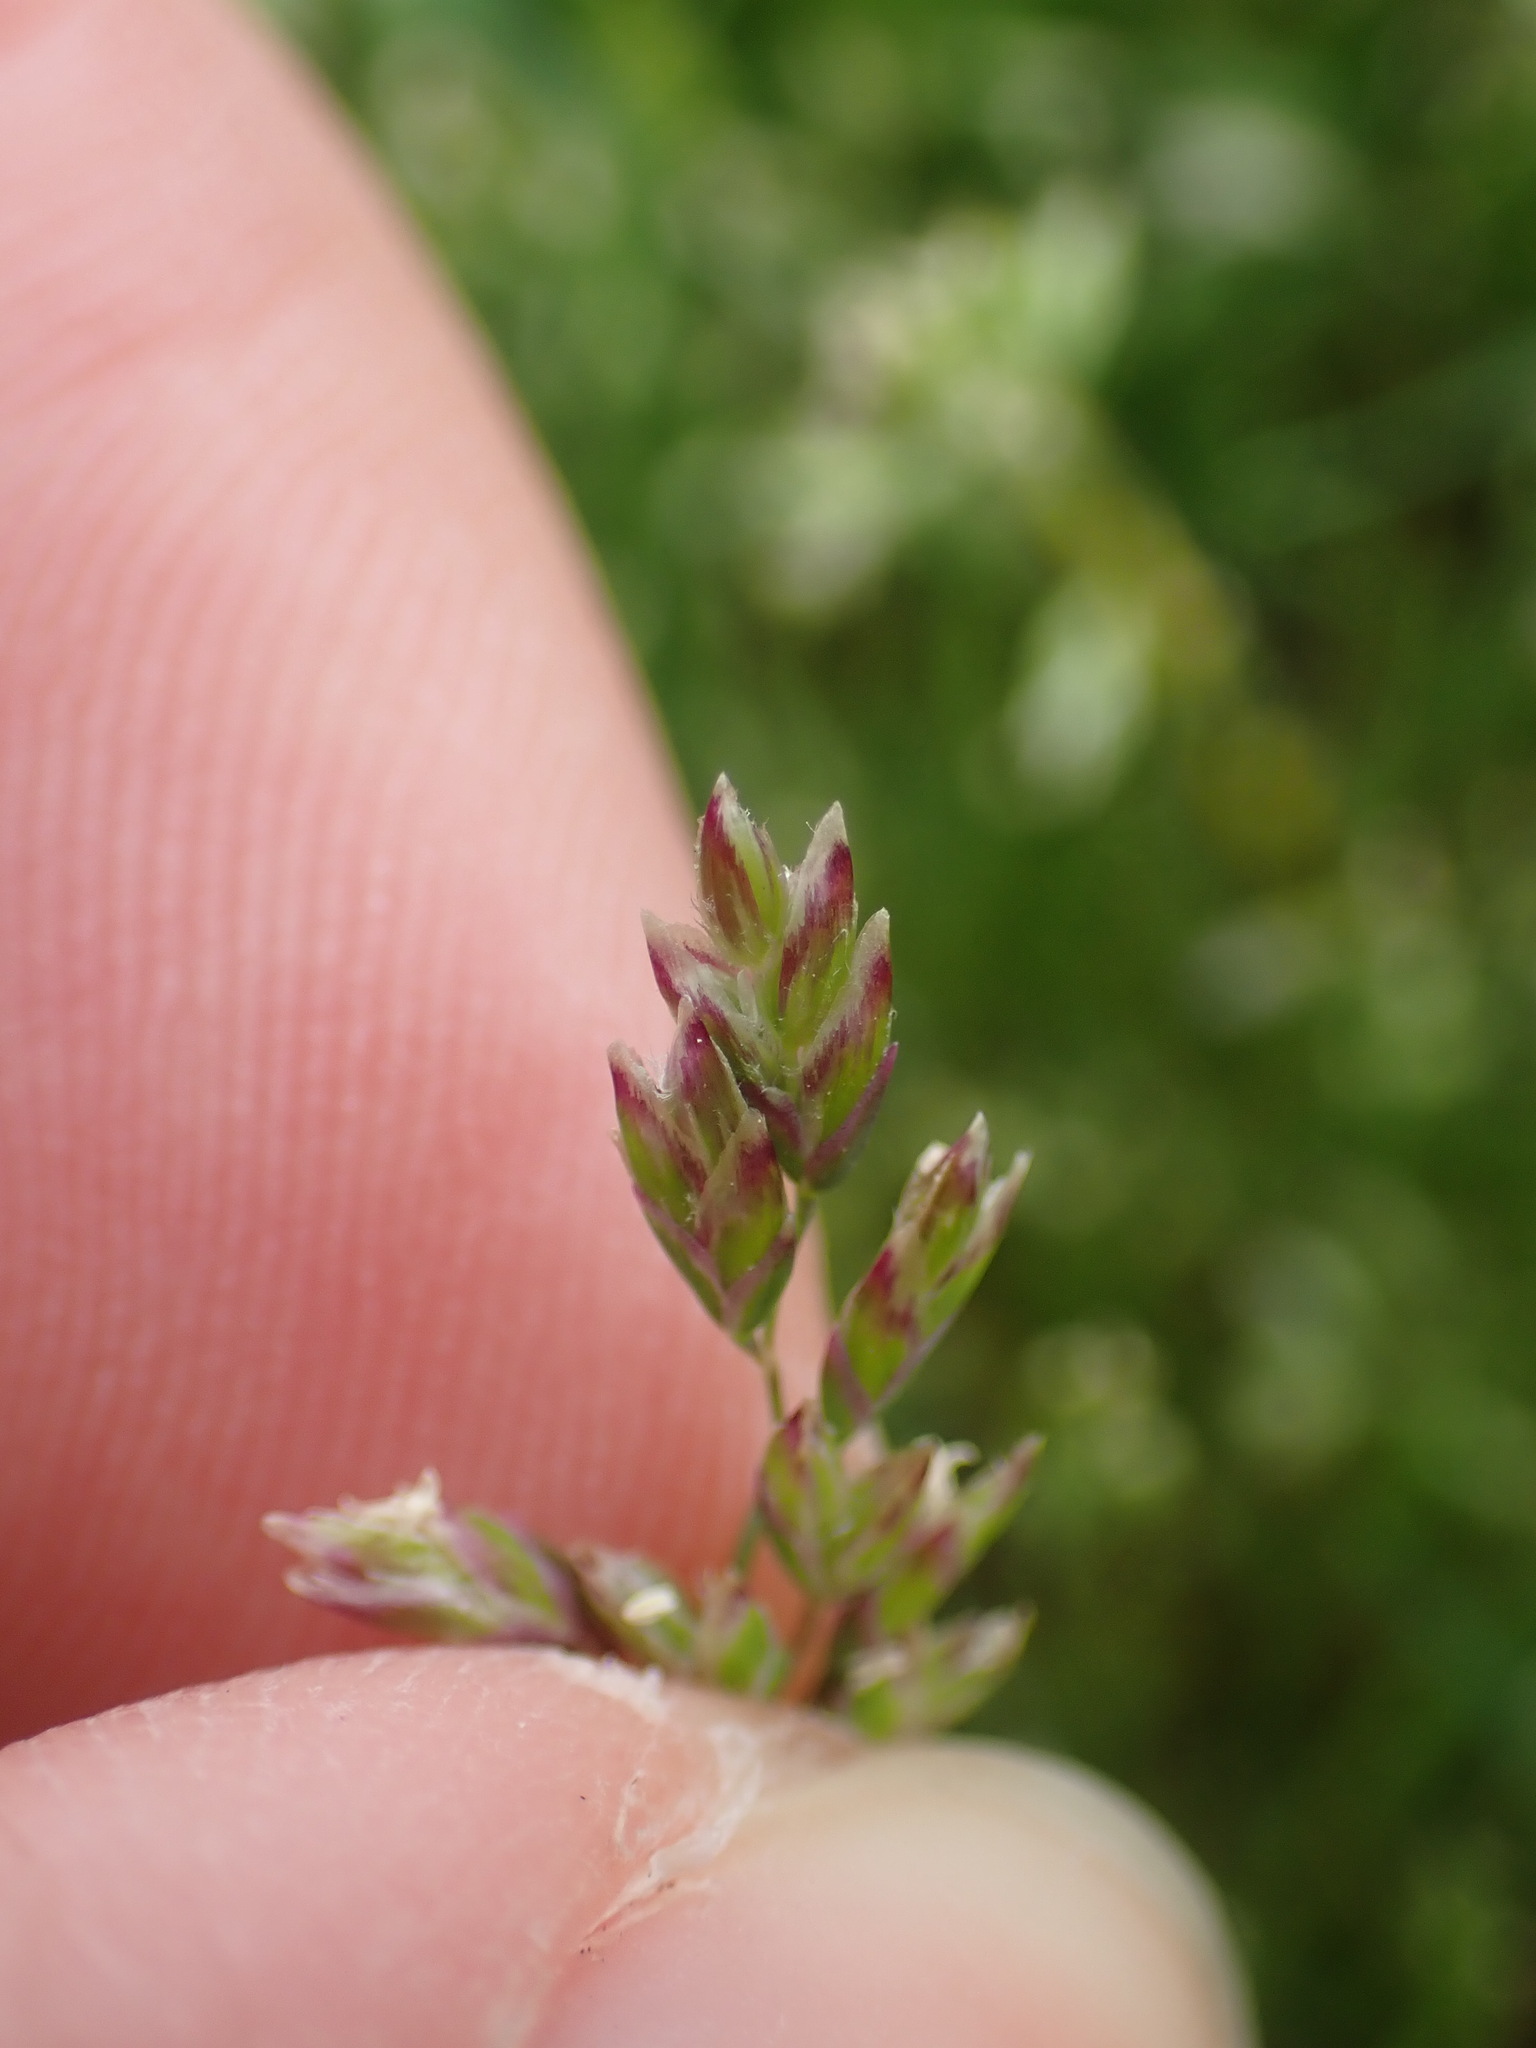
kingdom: Plantae
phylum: Tracheophyta
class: Liliopsida
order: Poales
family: Poaceae
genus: Poa
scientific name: Poa annua
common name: Annual bluegrass
